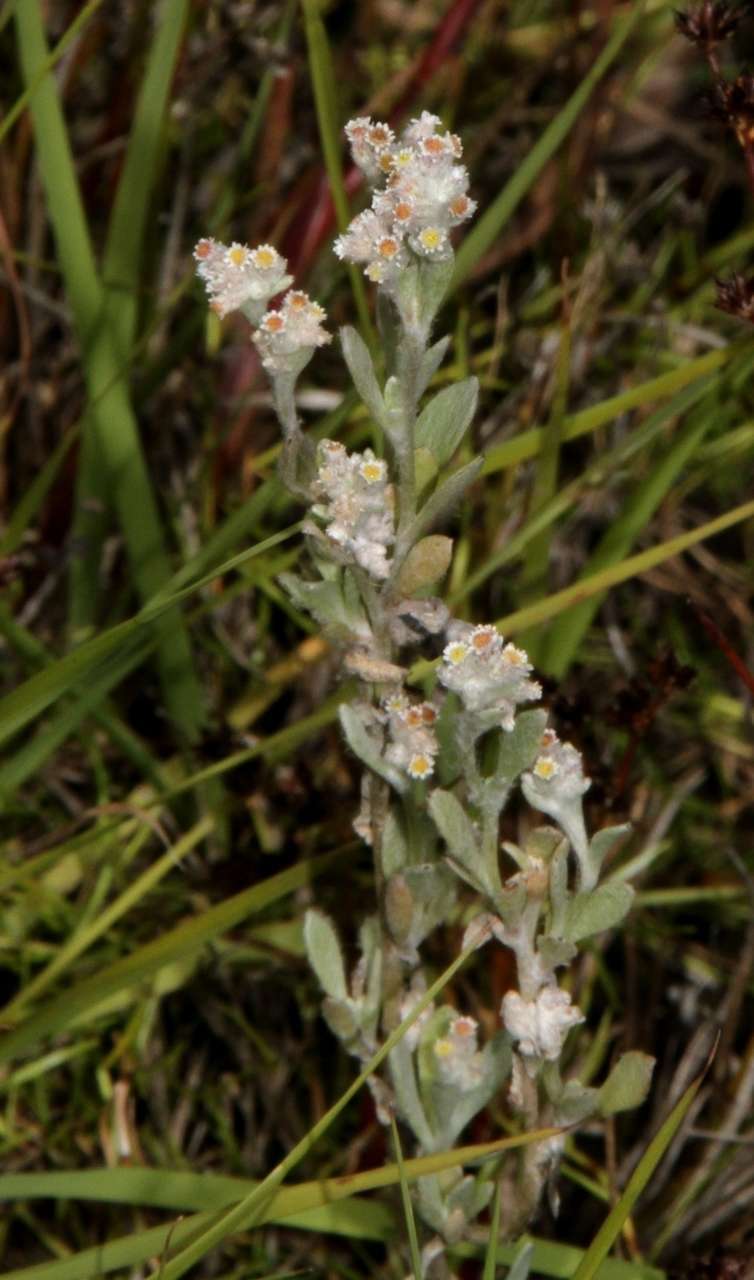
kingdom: Plantae
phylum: Tracheophyta
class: Magnoliopsida
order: Asterales
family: Asteraceae
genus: Vellereophyton
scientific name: Vellereophyton dealbatum
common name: White-cudweed
